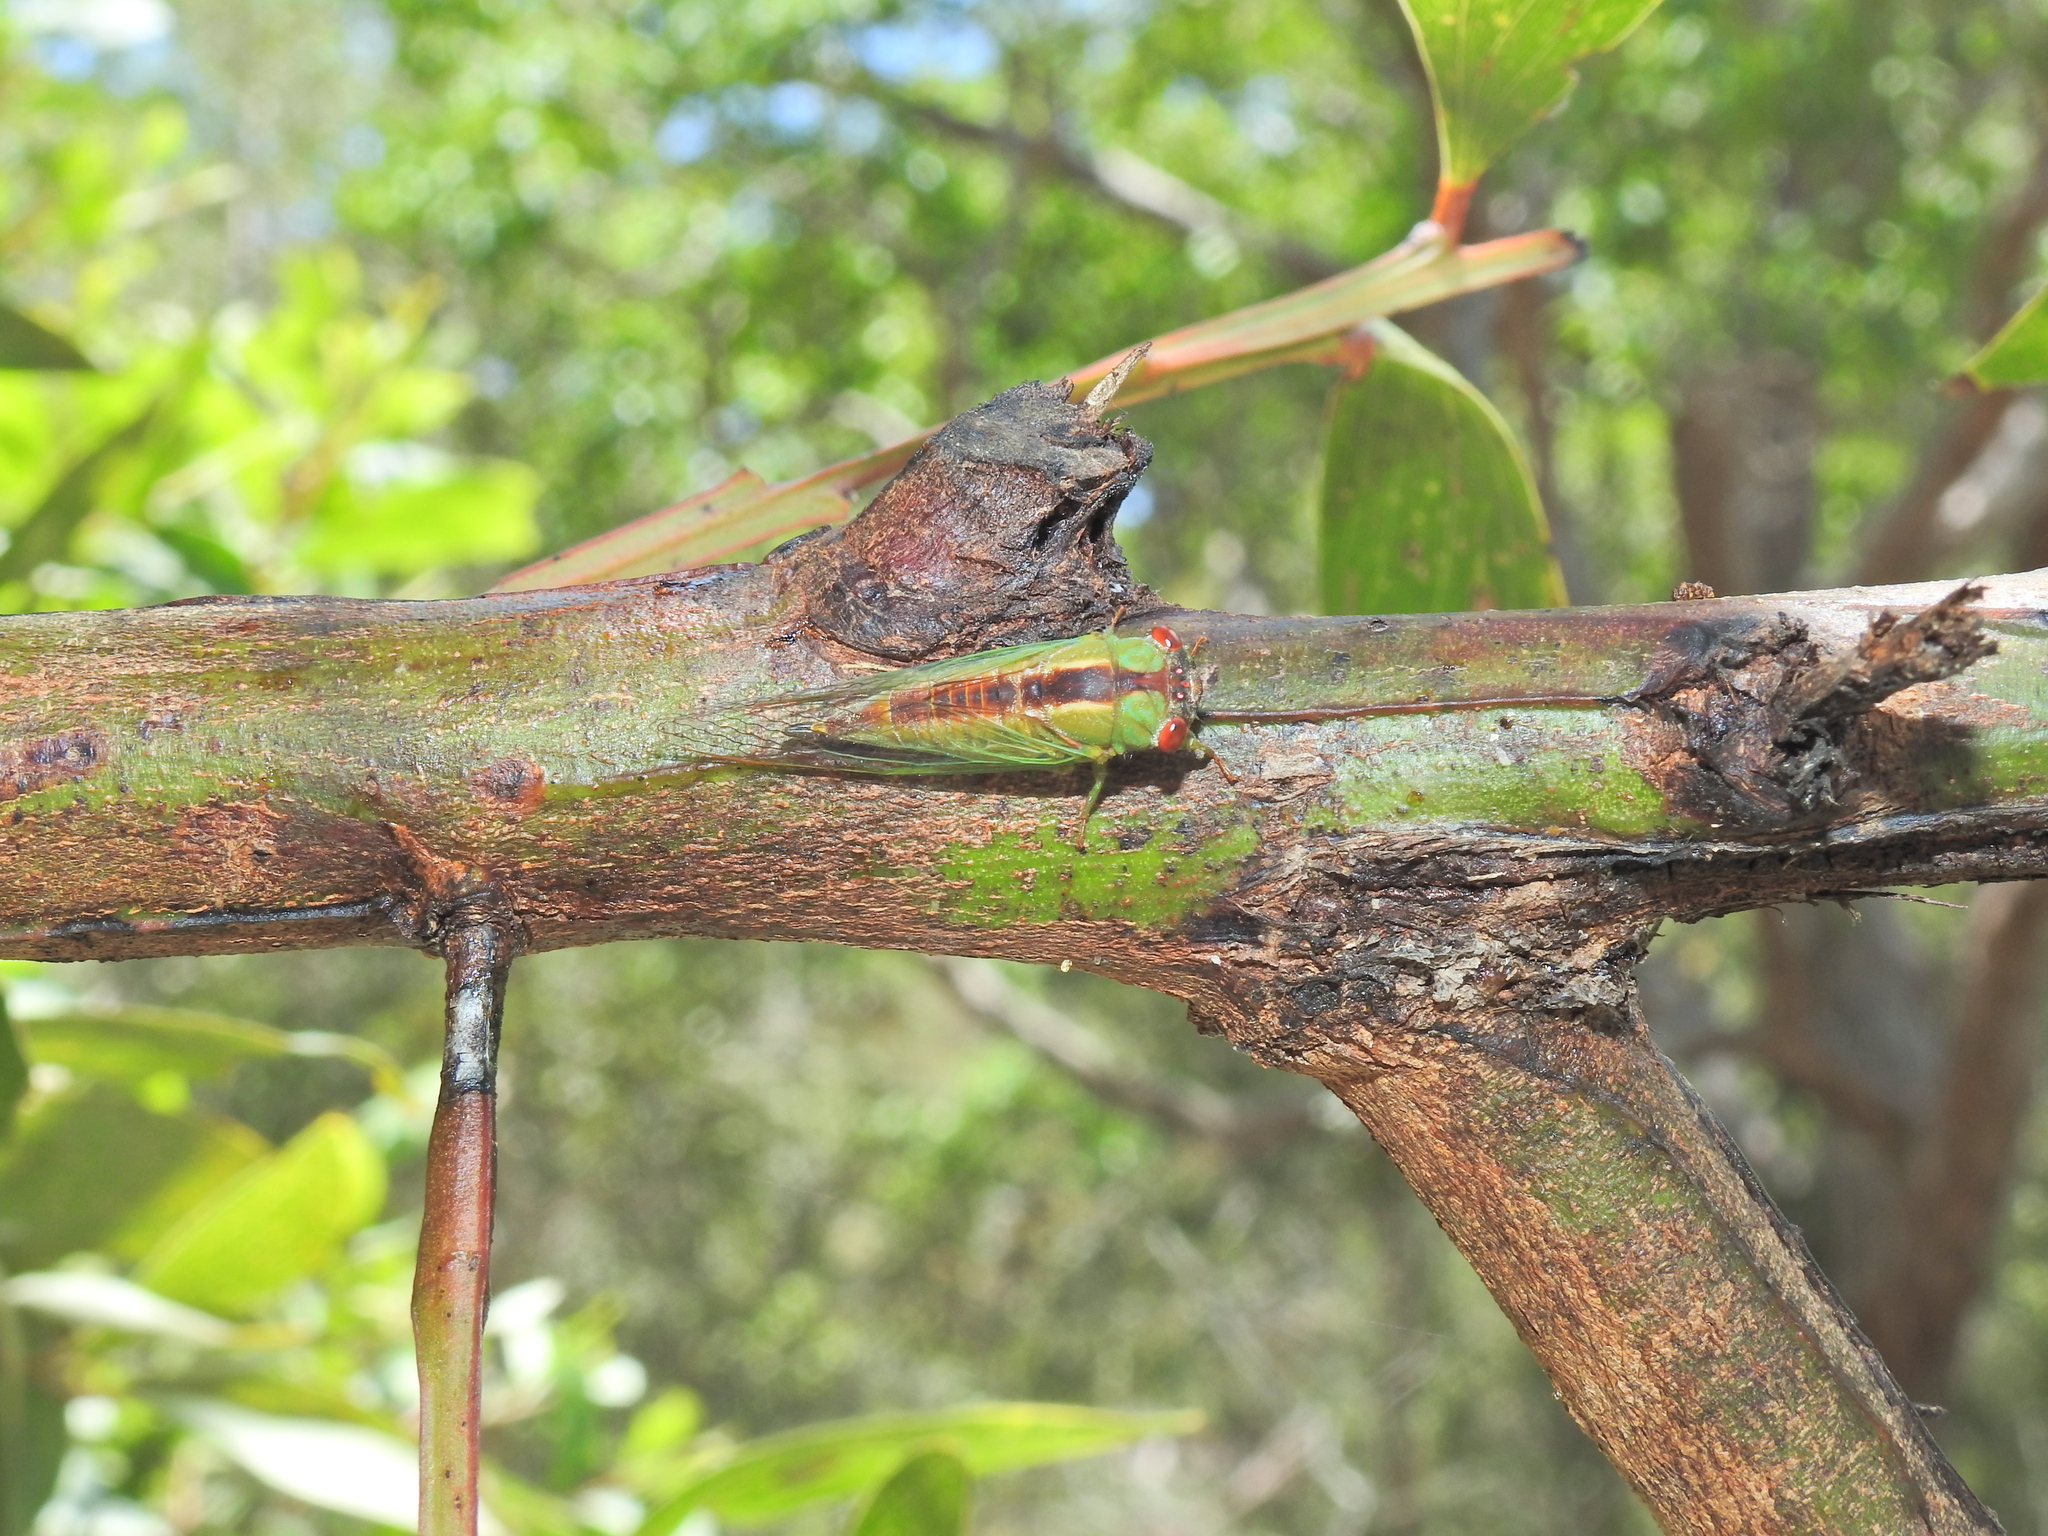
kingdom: Animalia
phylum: Arthropoda
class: Insecta
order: Hemiptera
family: Cicadidae
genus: Ewartia
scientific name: Ewartia oldfieldi
